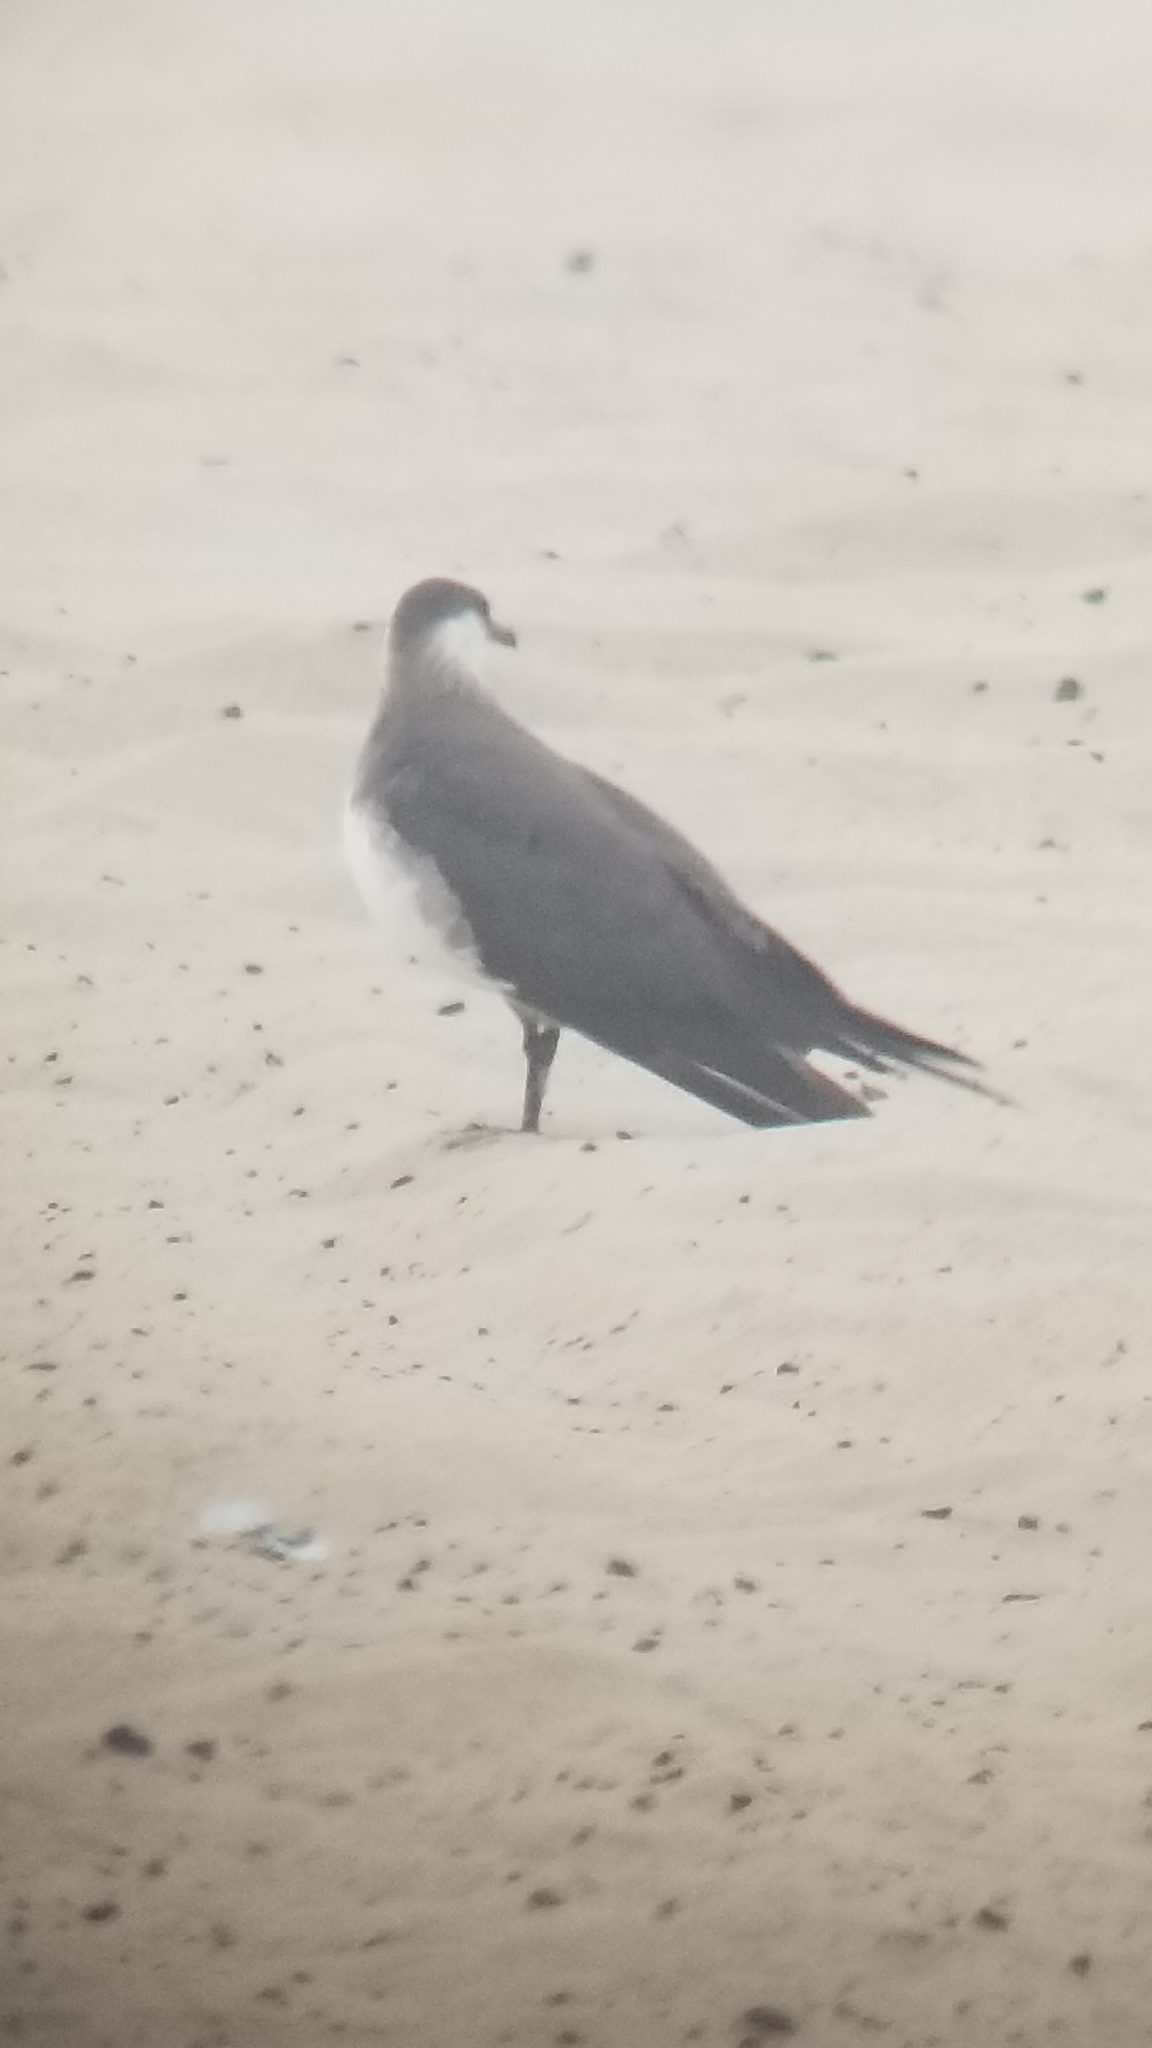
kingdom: Animalia
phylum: Chordata
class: Aves
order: Charadriiformes
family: Stercorariidae
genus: Stercorarius
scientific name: Stercorarius parasiticus
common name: Parasitic jaeger
